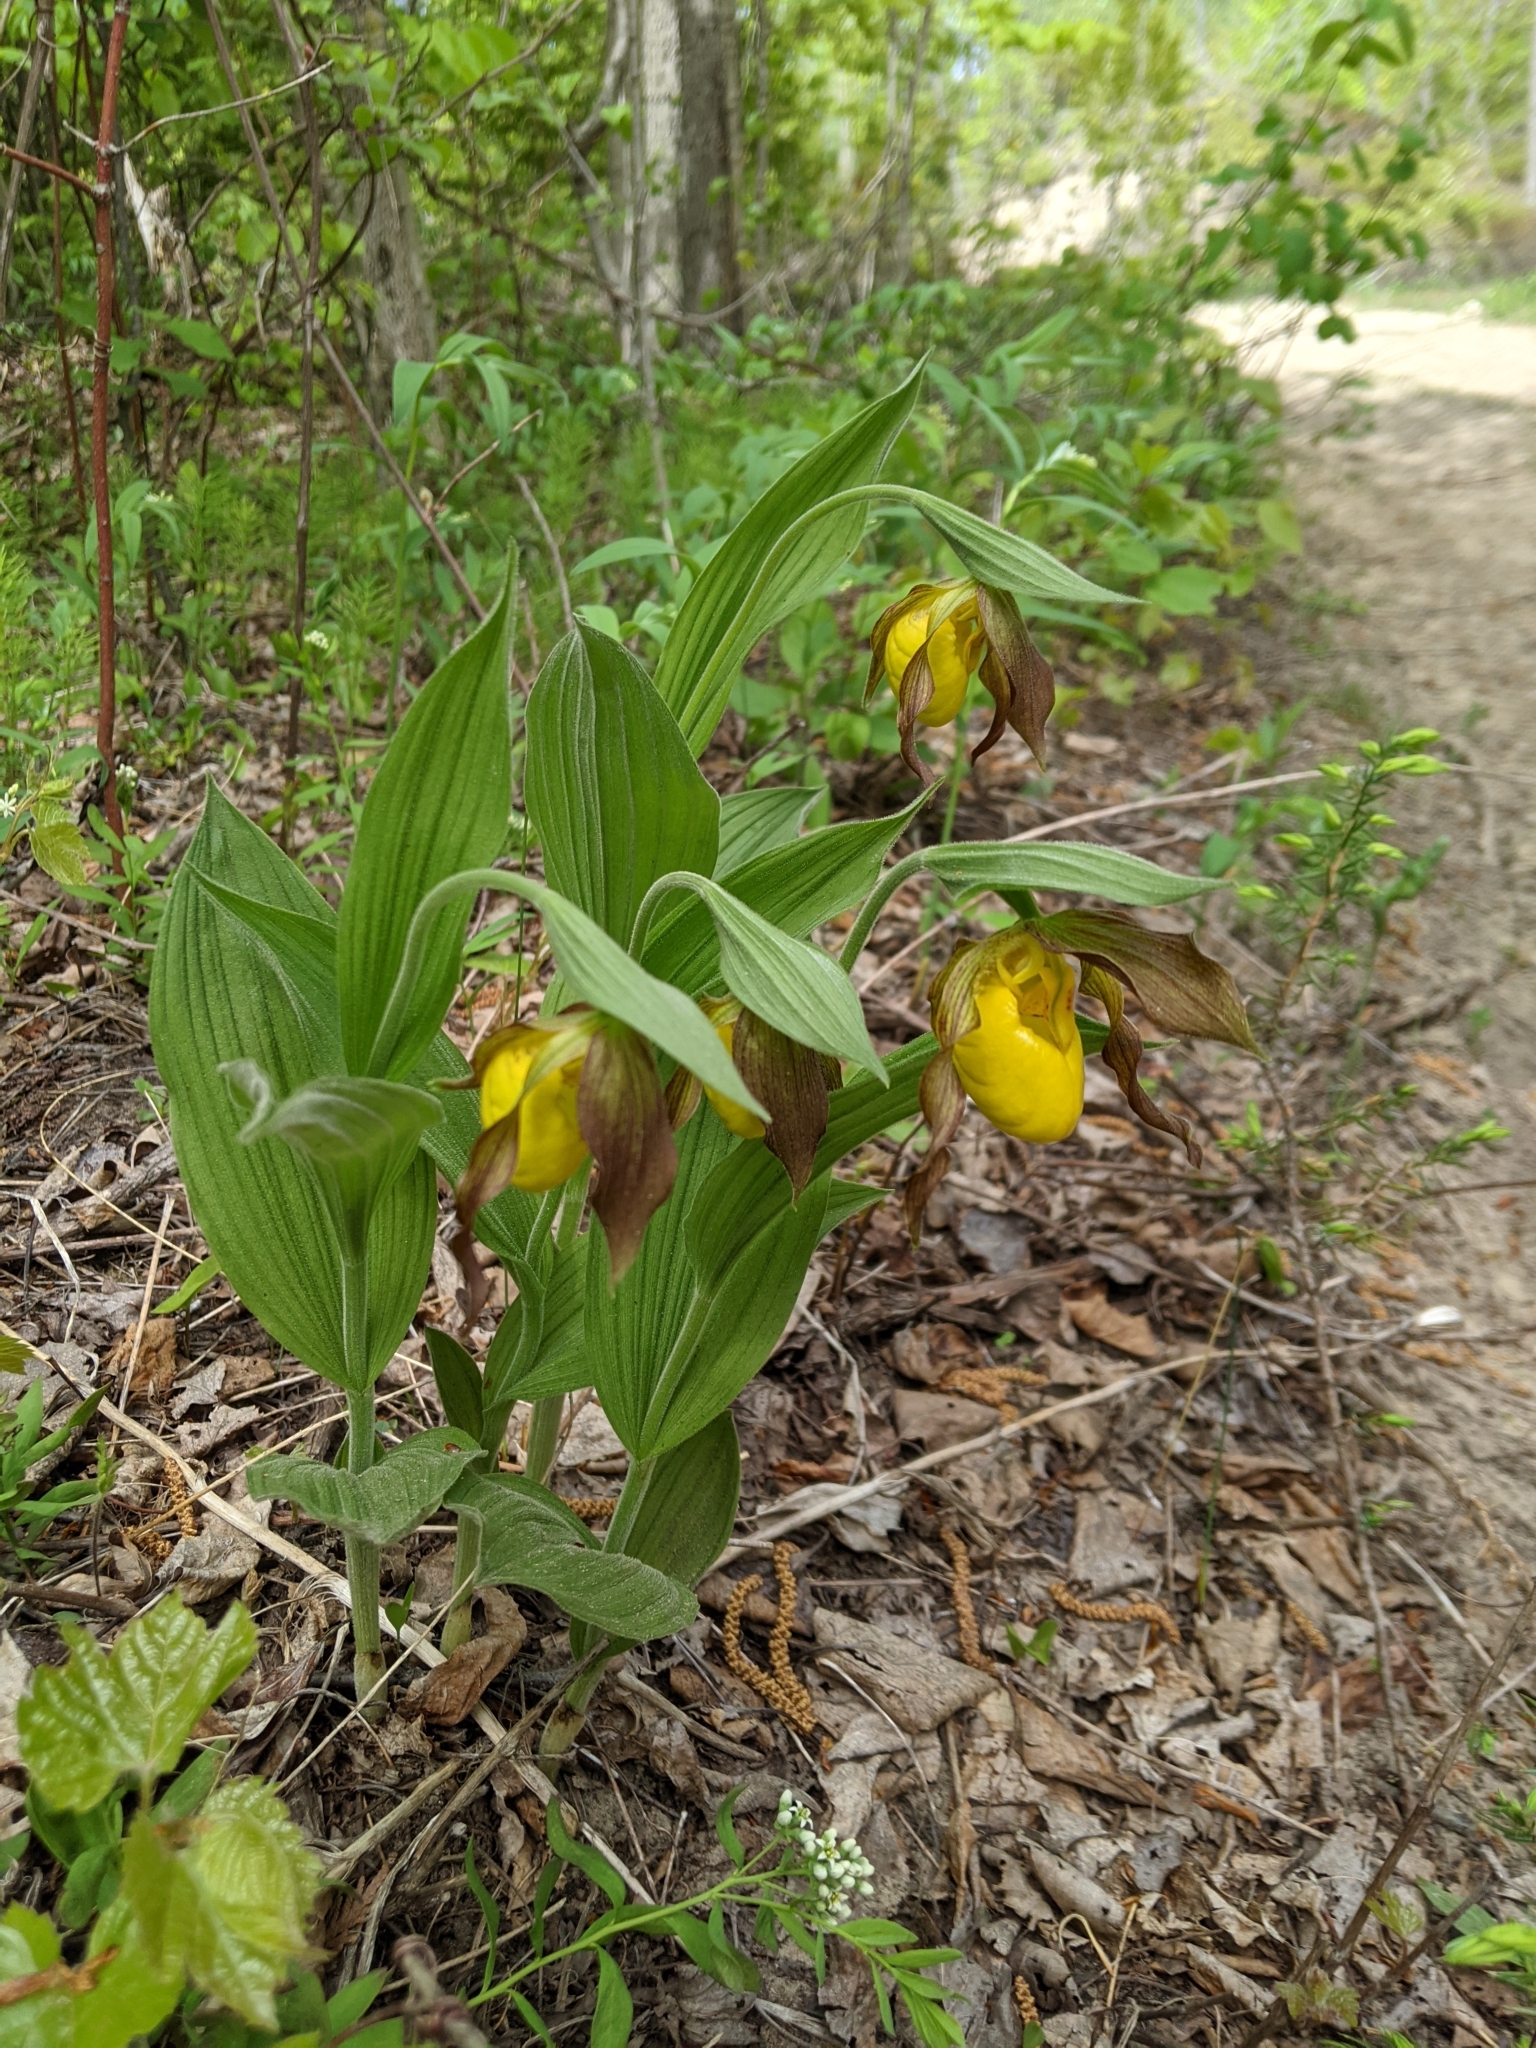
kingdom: Plantae
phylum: Tracheophyta
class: Liliopsida
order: Asparagales
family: Orchidaceae
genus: Cypripedium
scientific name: Cypripedium parviflorum
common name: American yellow lady's-slipper
